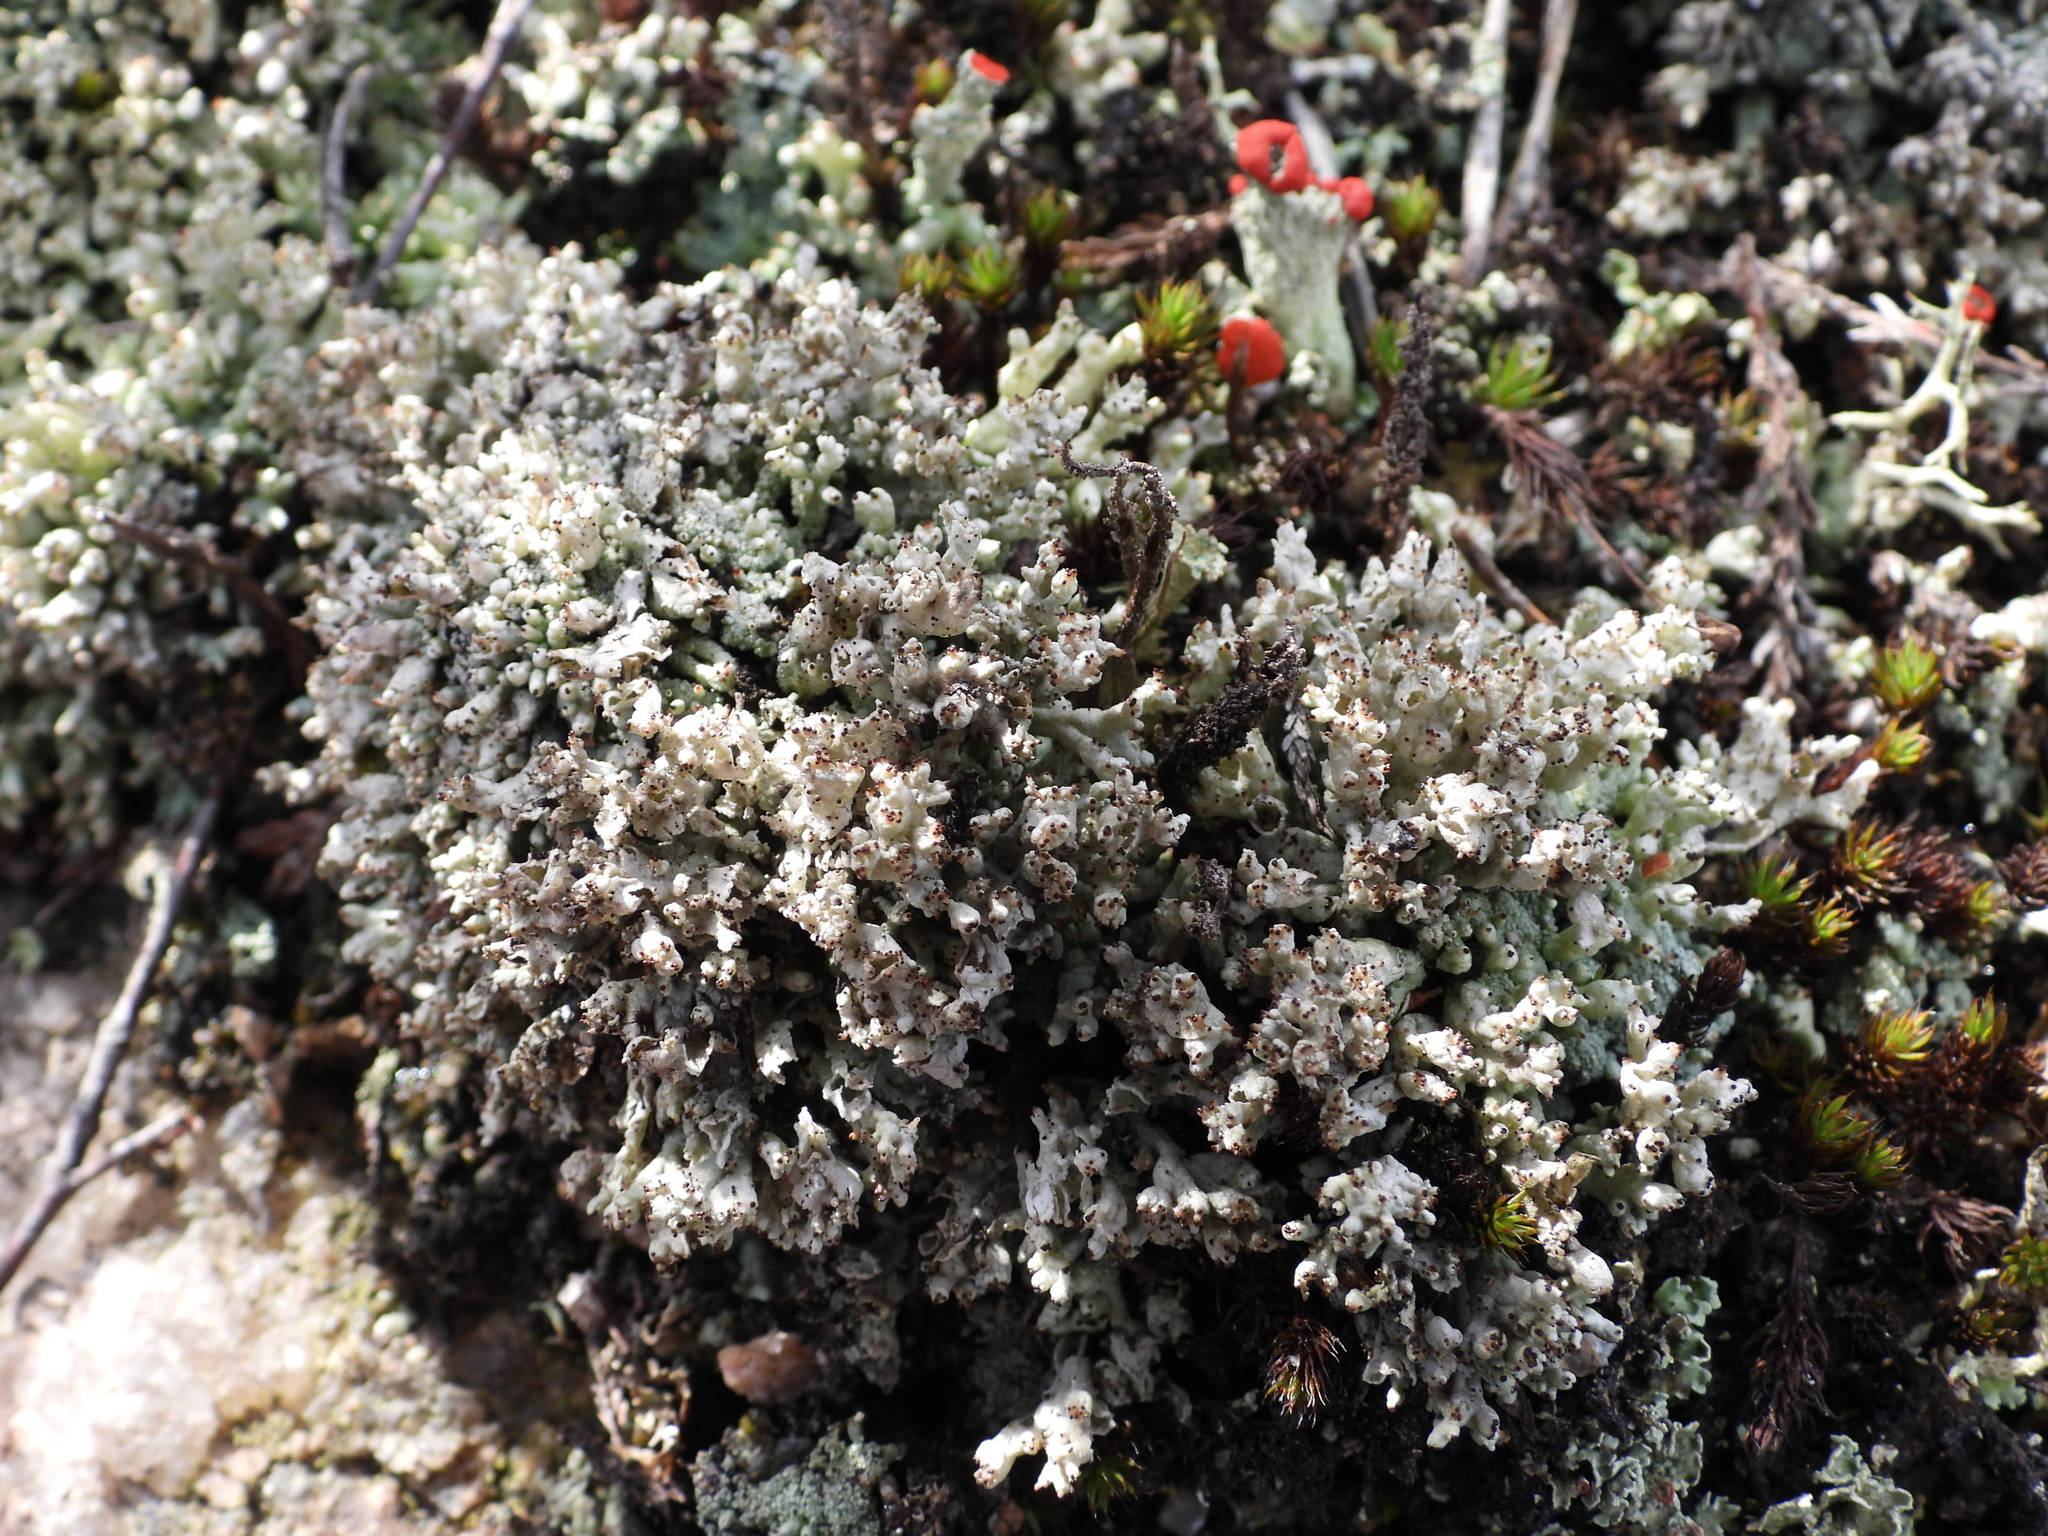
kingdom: Fungi
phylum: Ascomycota
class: Lecanoromycetes
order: Lecanorales
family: Cladoniaceae
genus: Pycnothelia
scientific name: Pycnothelia papillaria
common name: Nipple lichen
